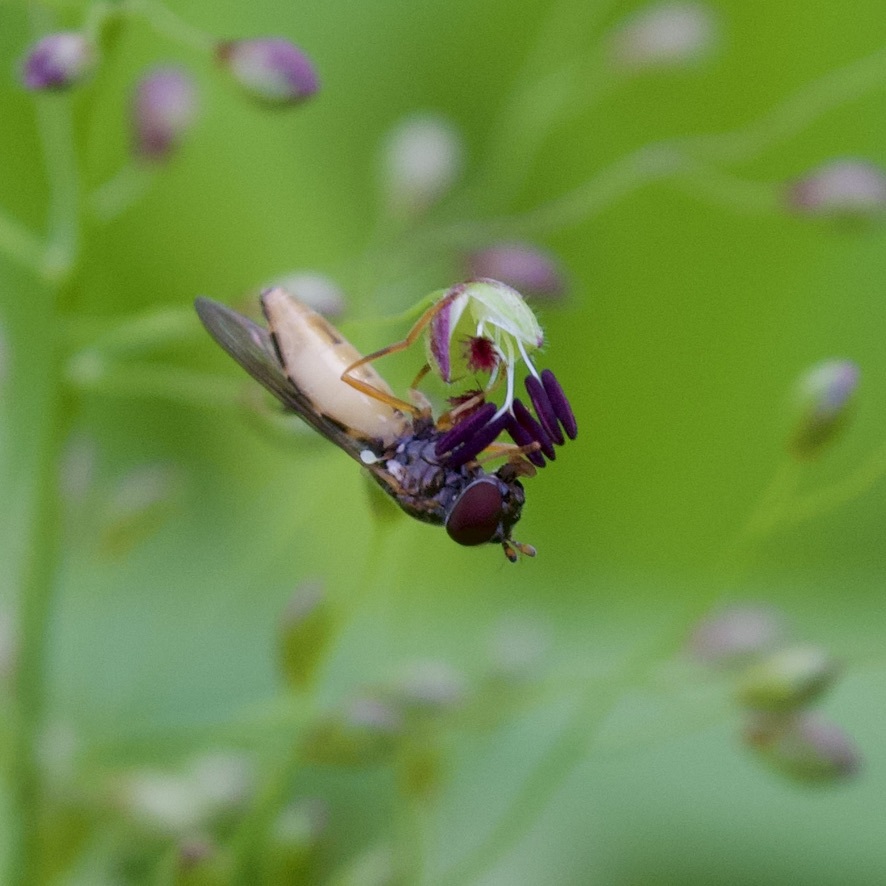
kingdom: Animalia
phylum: Arthropoda
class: Insecta
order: Diptera
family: Syrphidae
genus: Melanostoma
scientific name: Melanostoma mellina
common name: Hover fly
